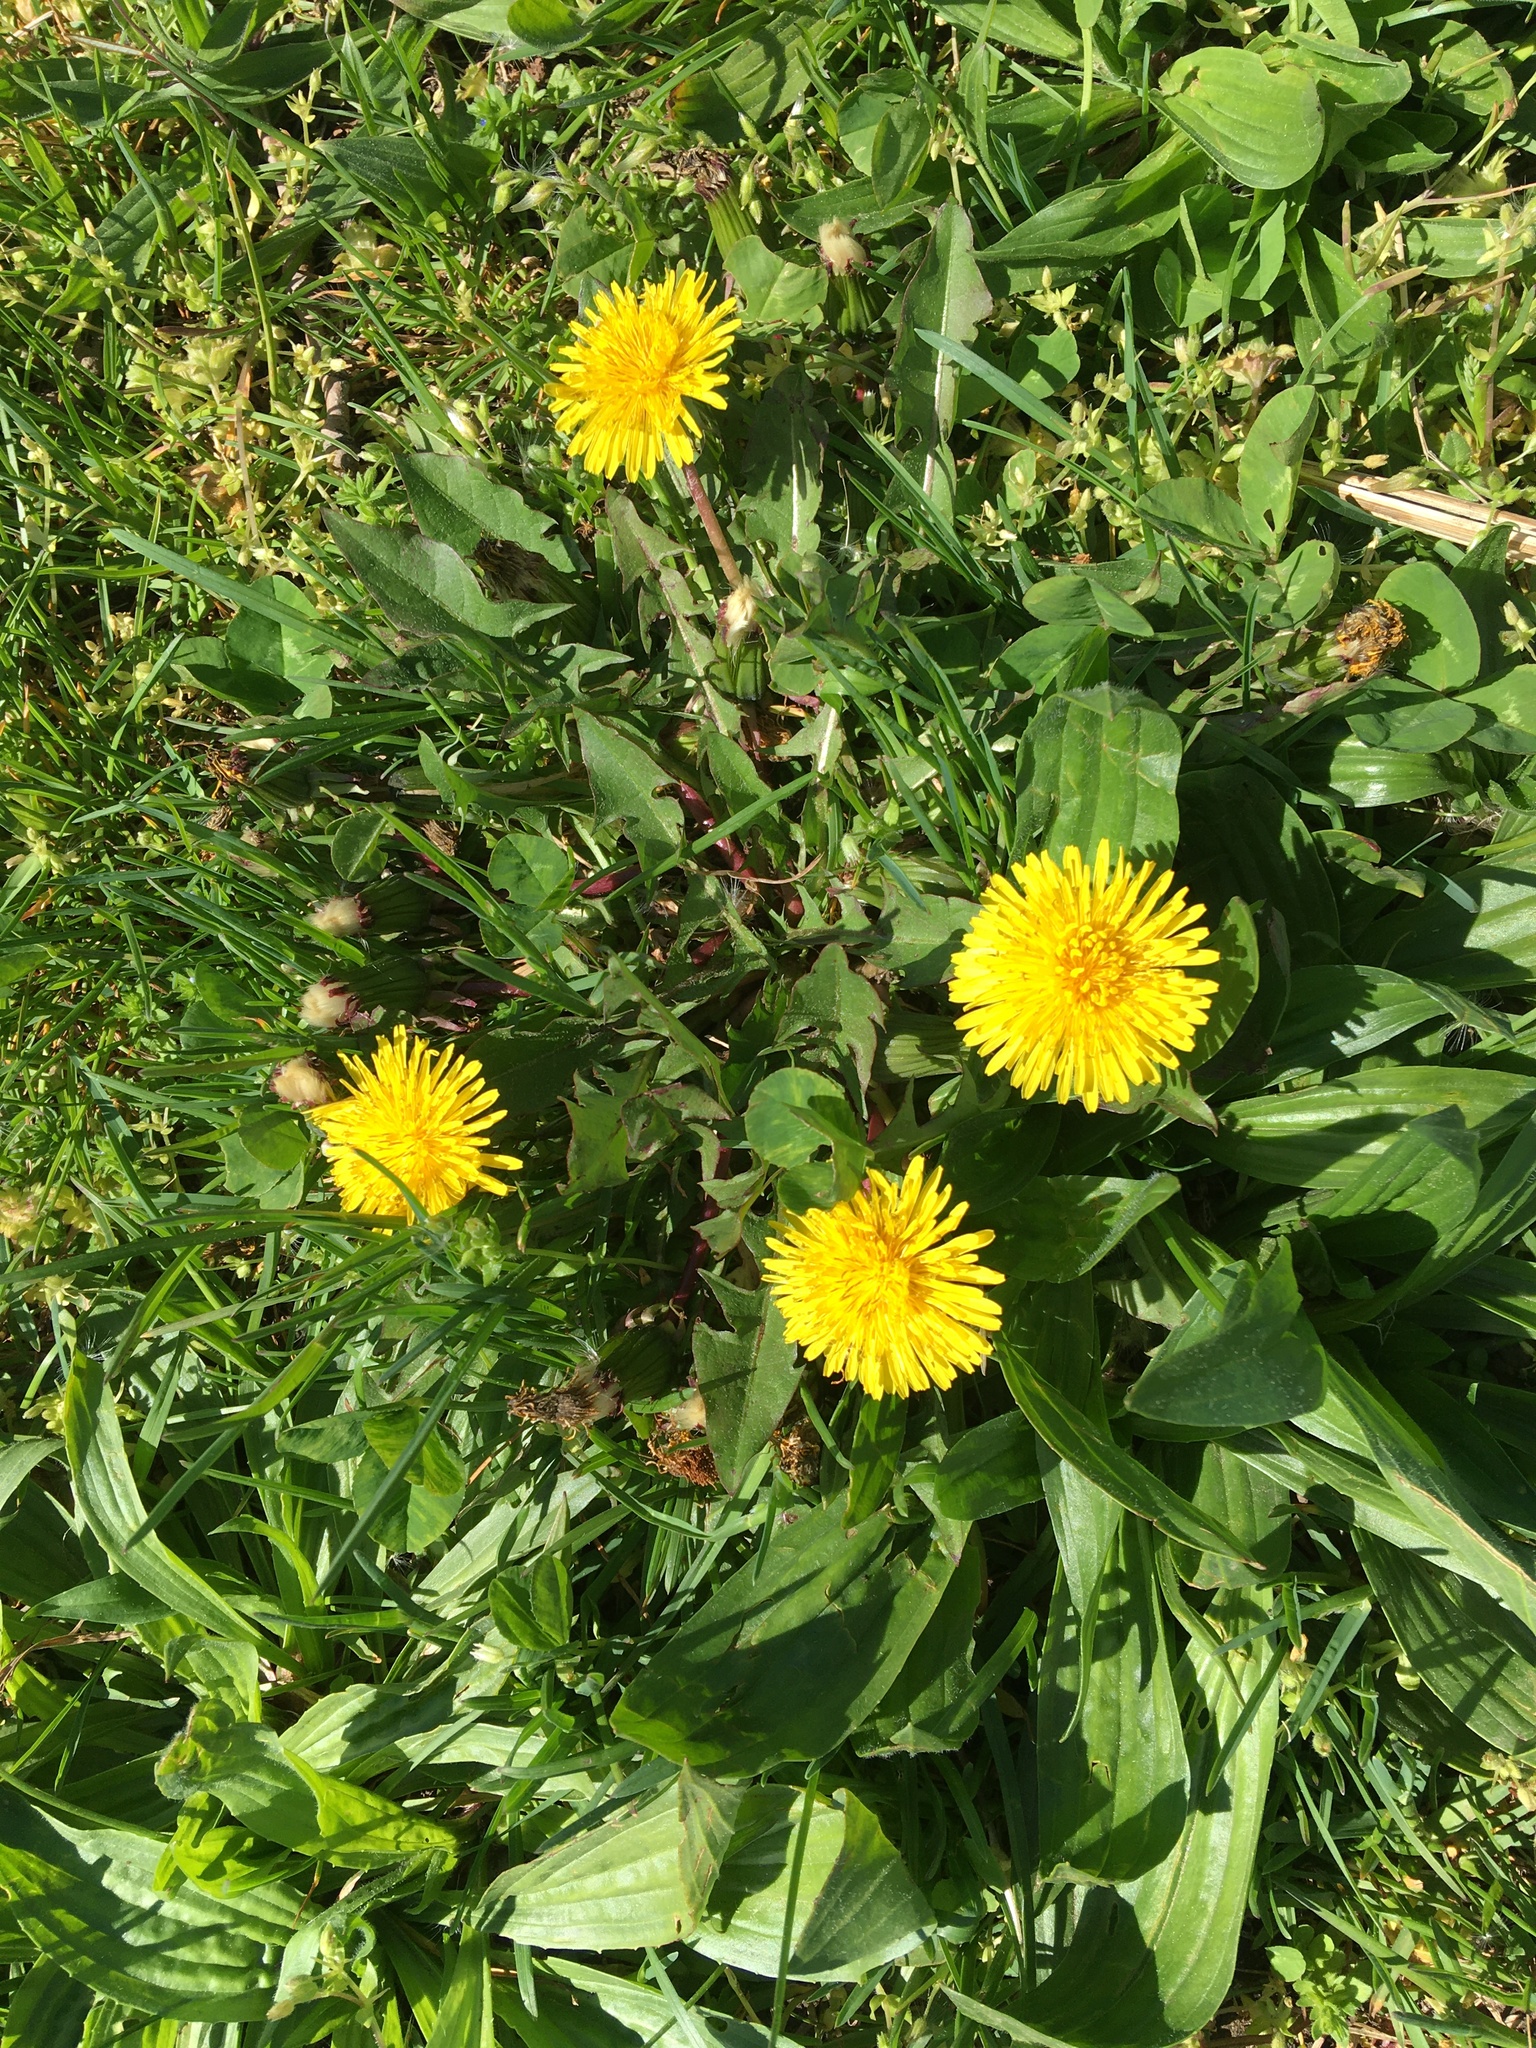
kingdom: Plantae
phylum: Tracheophyta
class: Magnoliopsida
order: Asterales
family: Asteraceae
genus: Taraxacum
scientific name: Taraxacum
